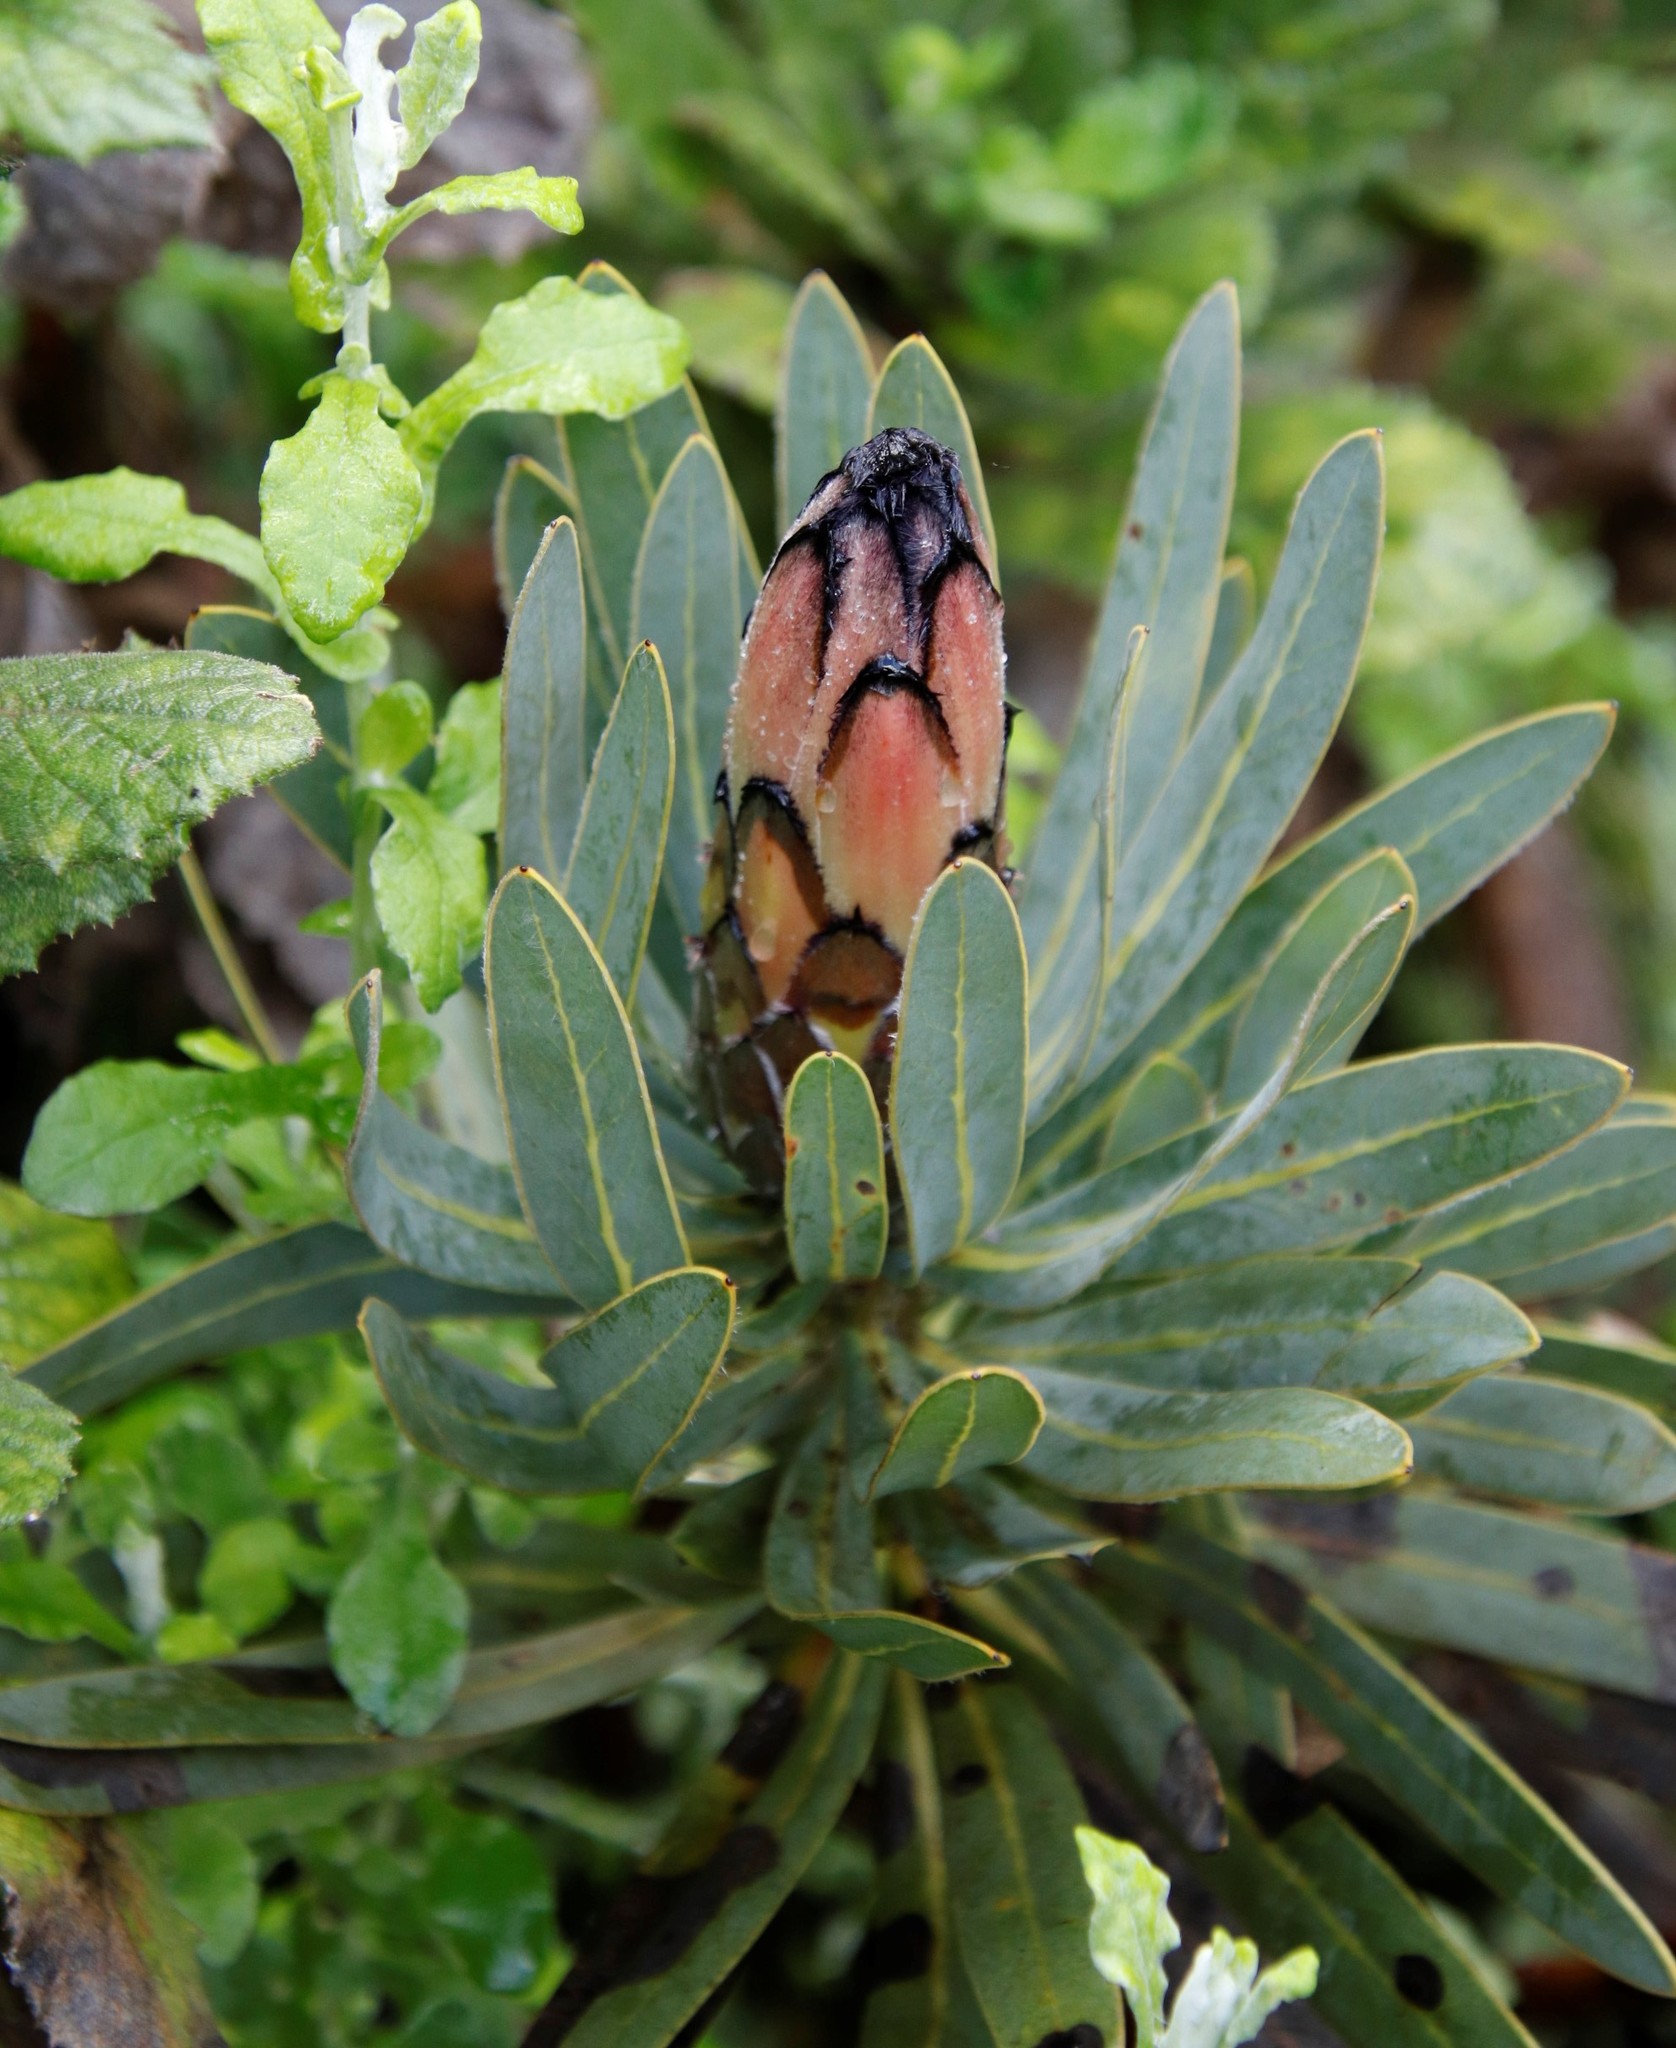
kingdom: Plantae
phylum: Tracheophyta
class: Magnoliopsida
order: Proteales
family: Proteaceae
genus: Protea
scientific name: Protea
